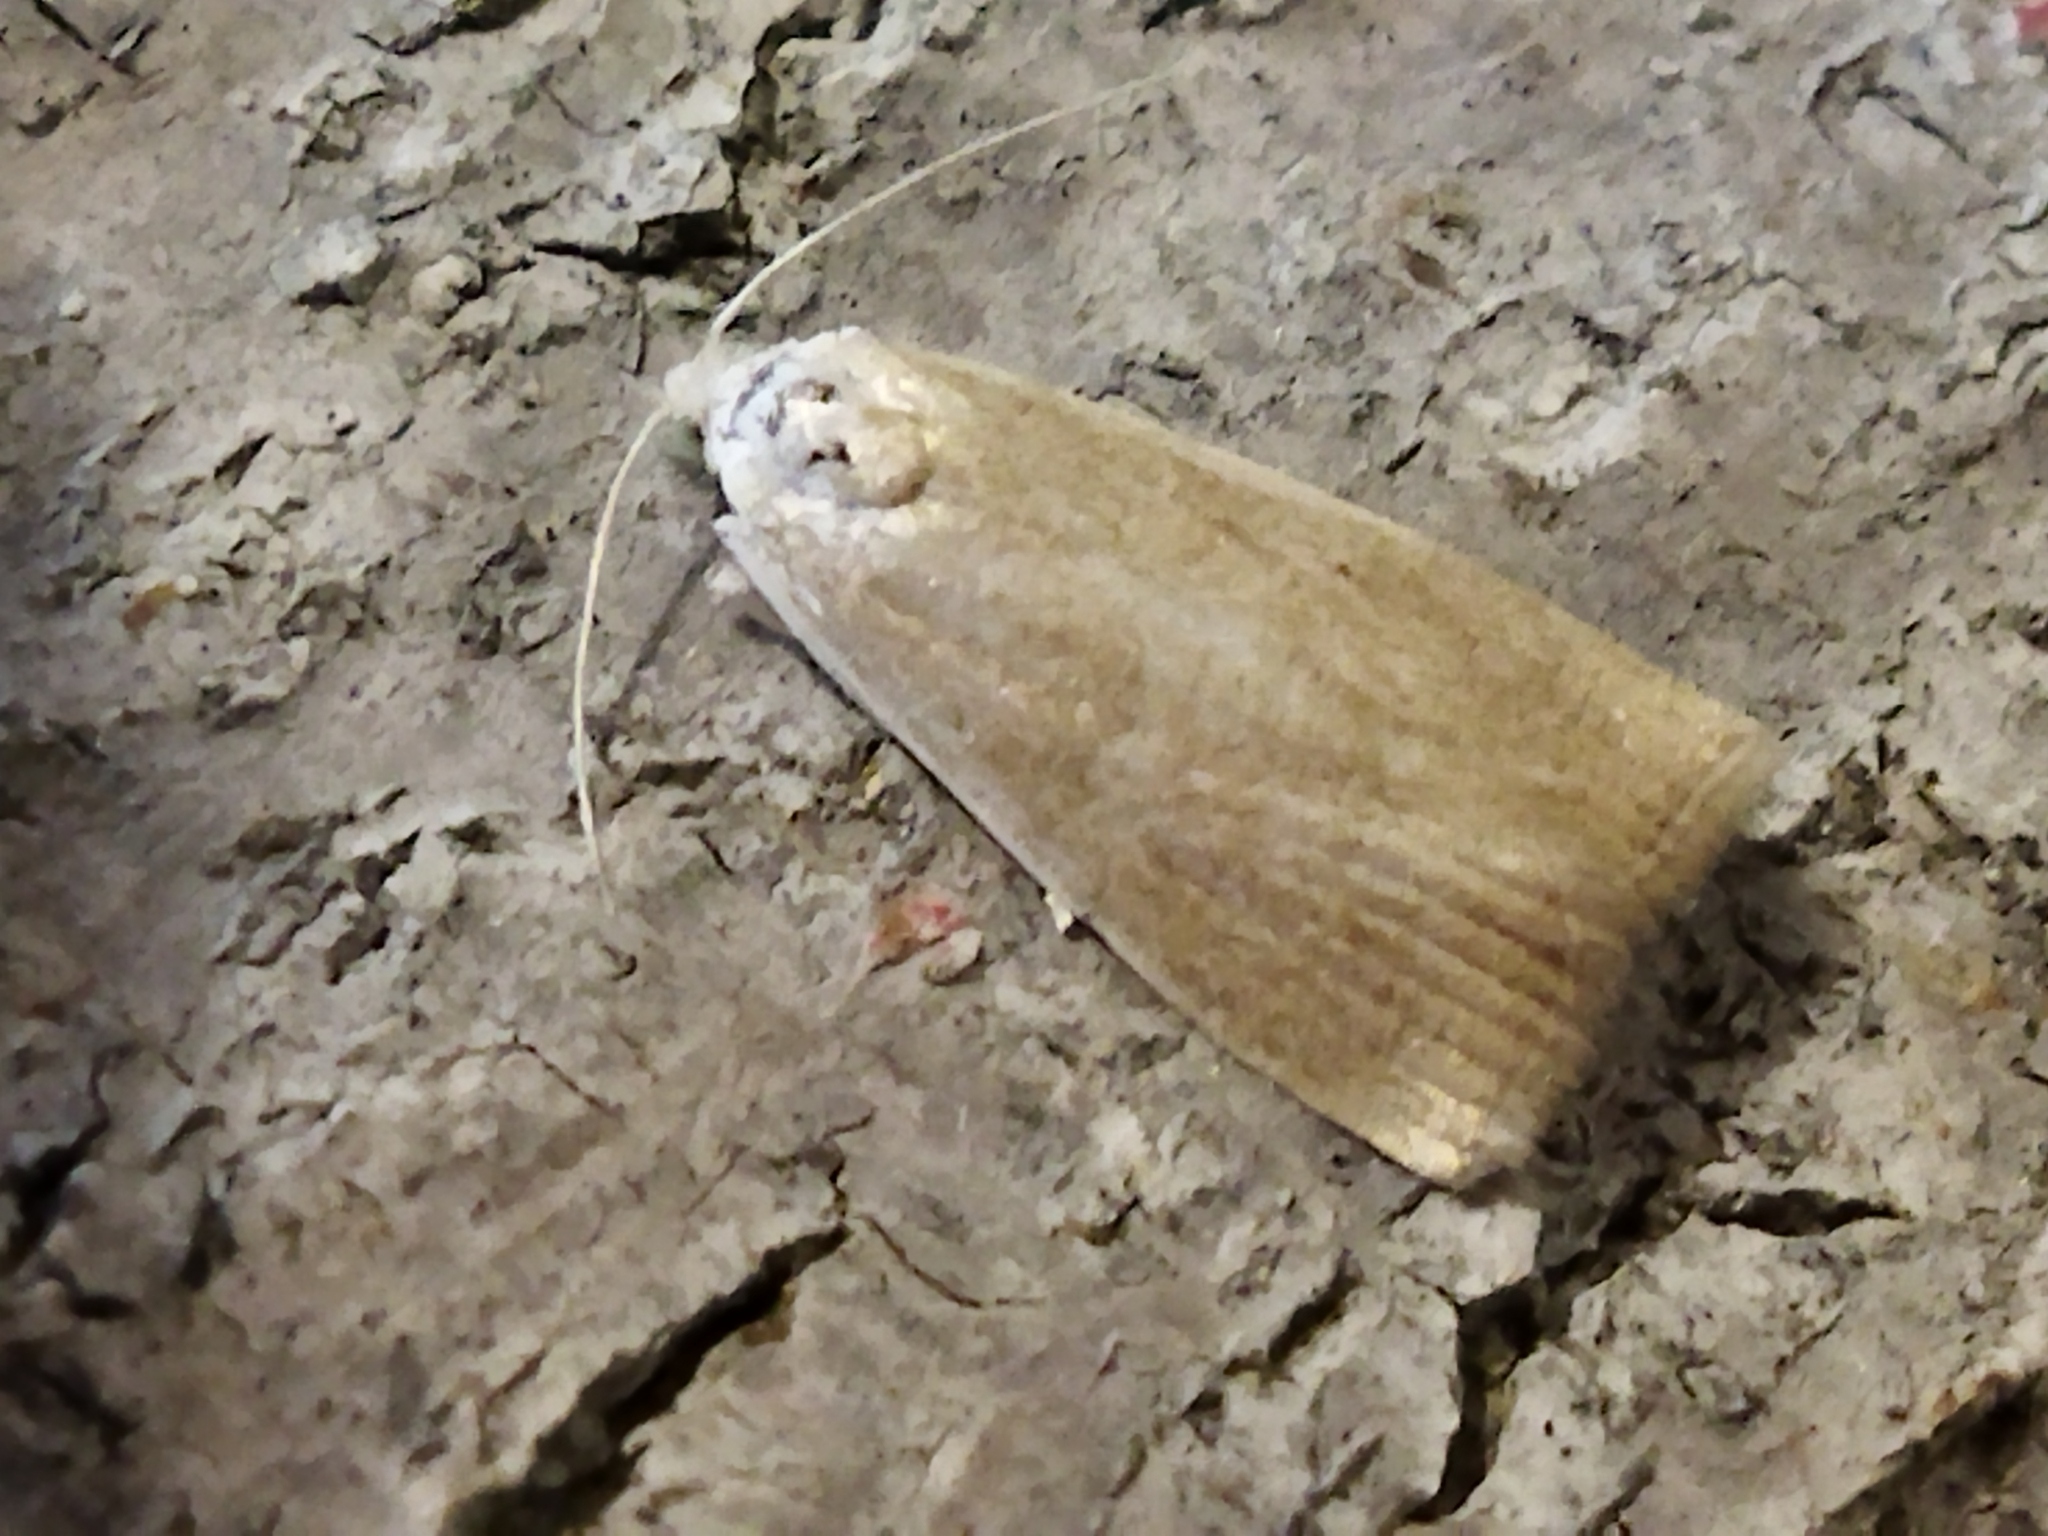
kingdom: Animalia
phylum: Arthropoda
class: Insecta
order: Lepidoptera
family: Crambidae
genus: Calamotropha
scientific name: Calamotropha paludella
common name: Bulrush veneer
